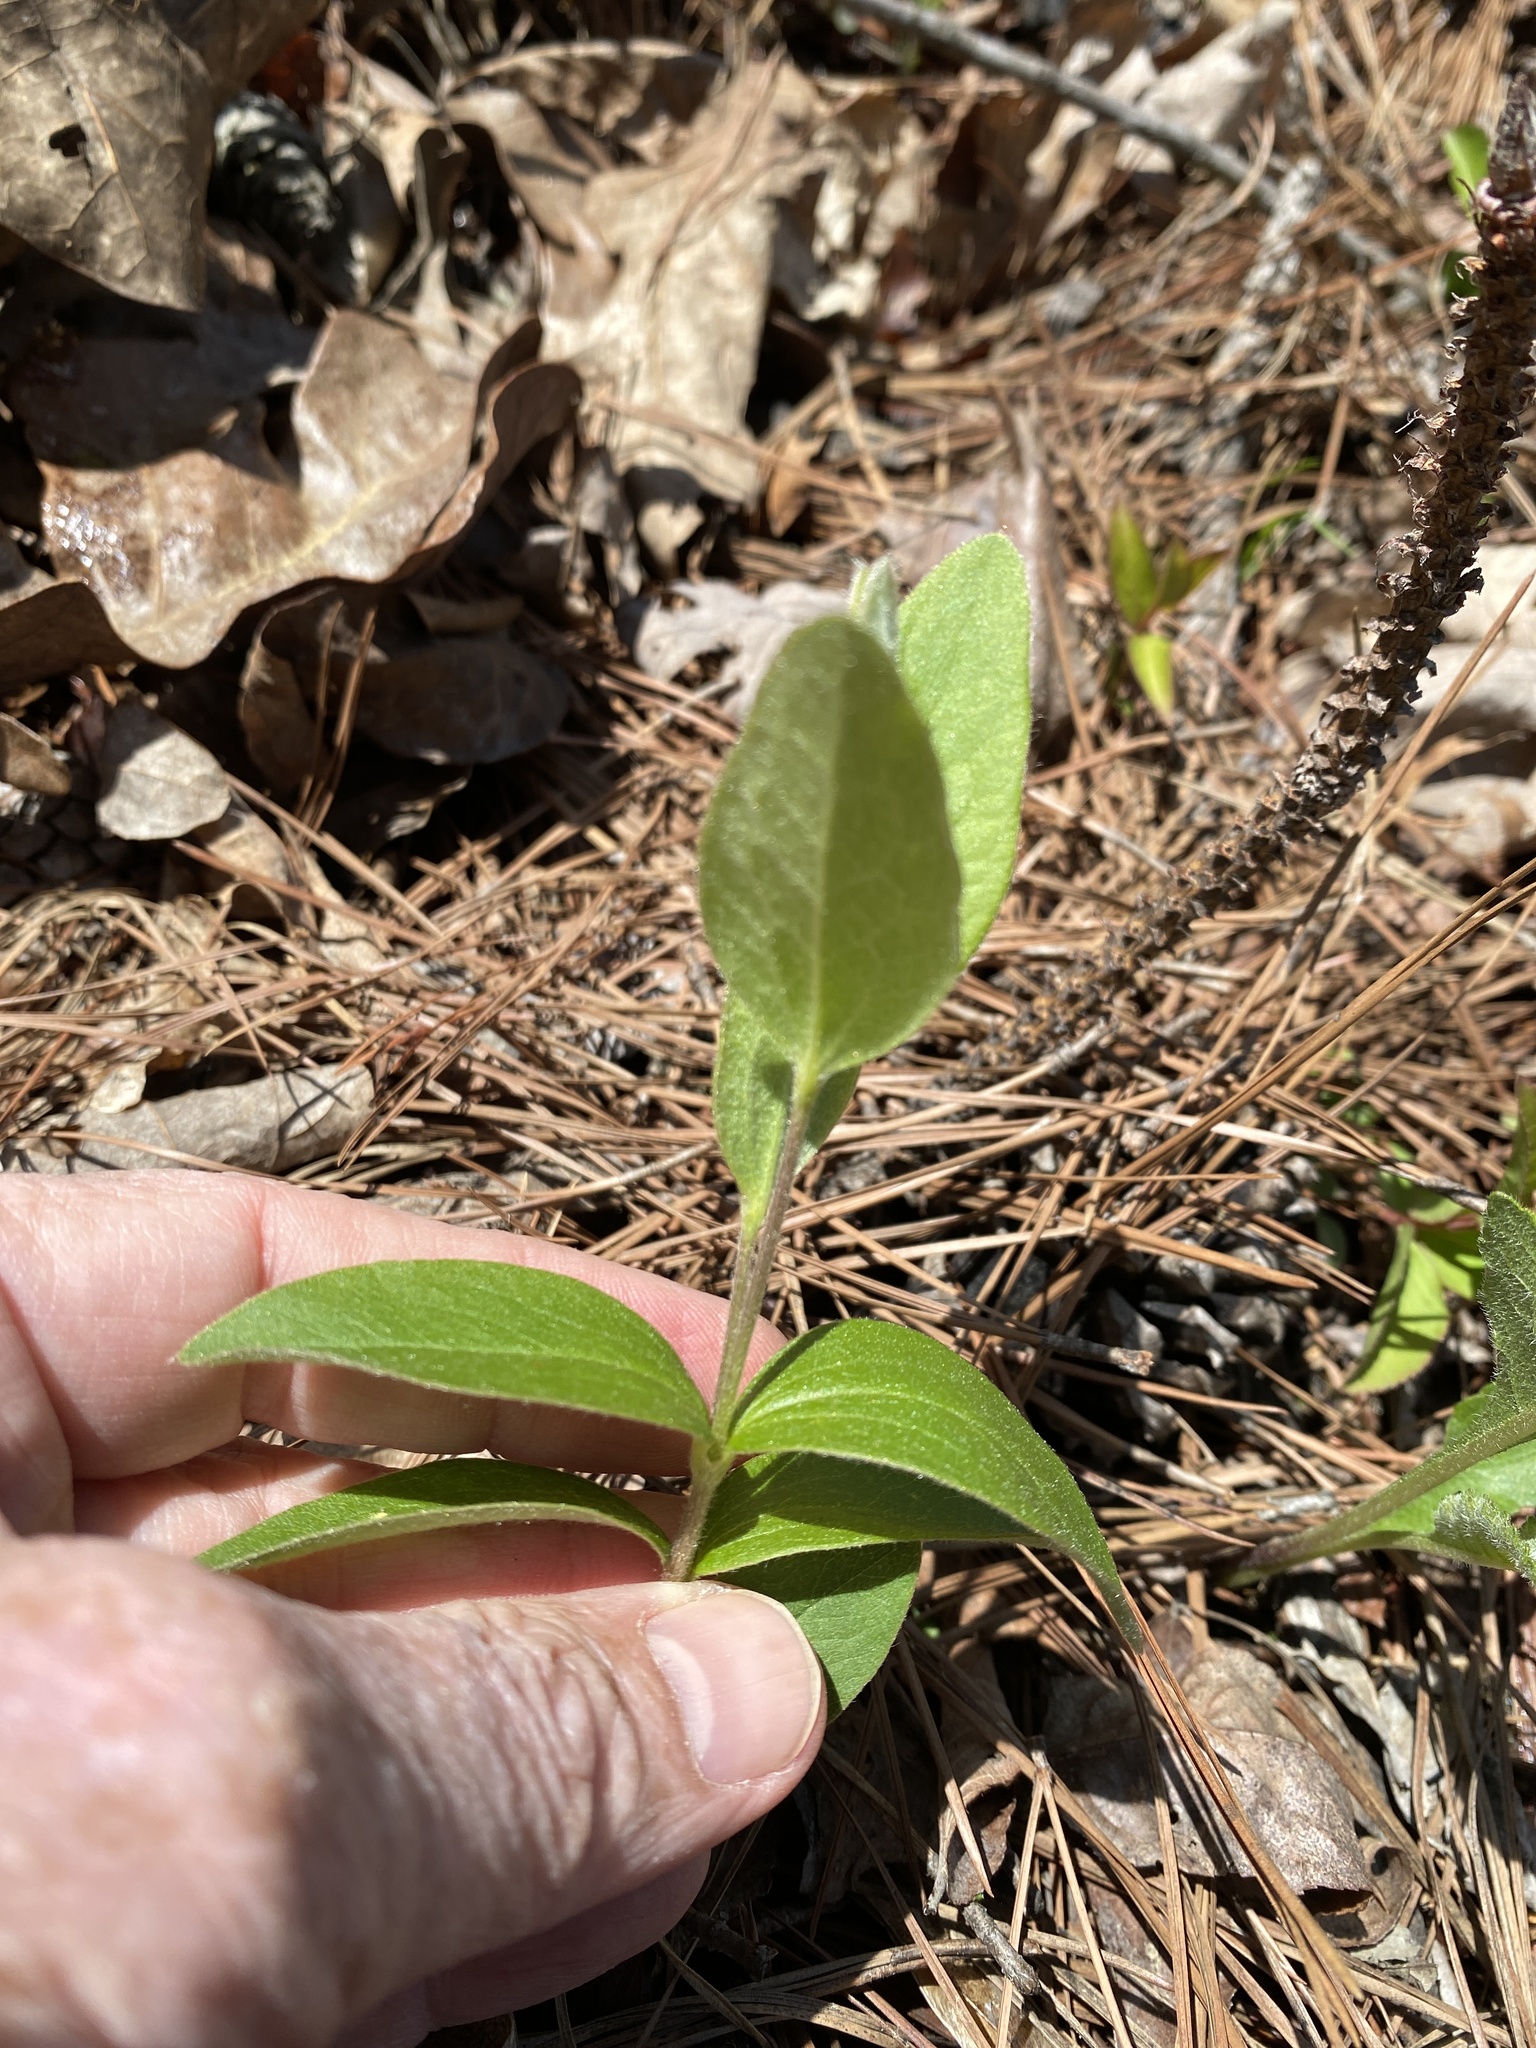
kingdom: Plantae
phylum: Tracheophyta
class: Magnoliopsida
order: Ranunculales
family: Ranunculaceae
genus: Clematis
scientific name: Clematis ochroleuca
